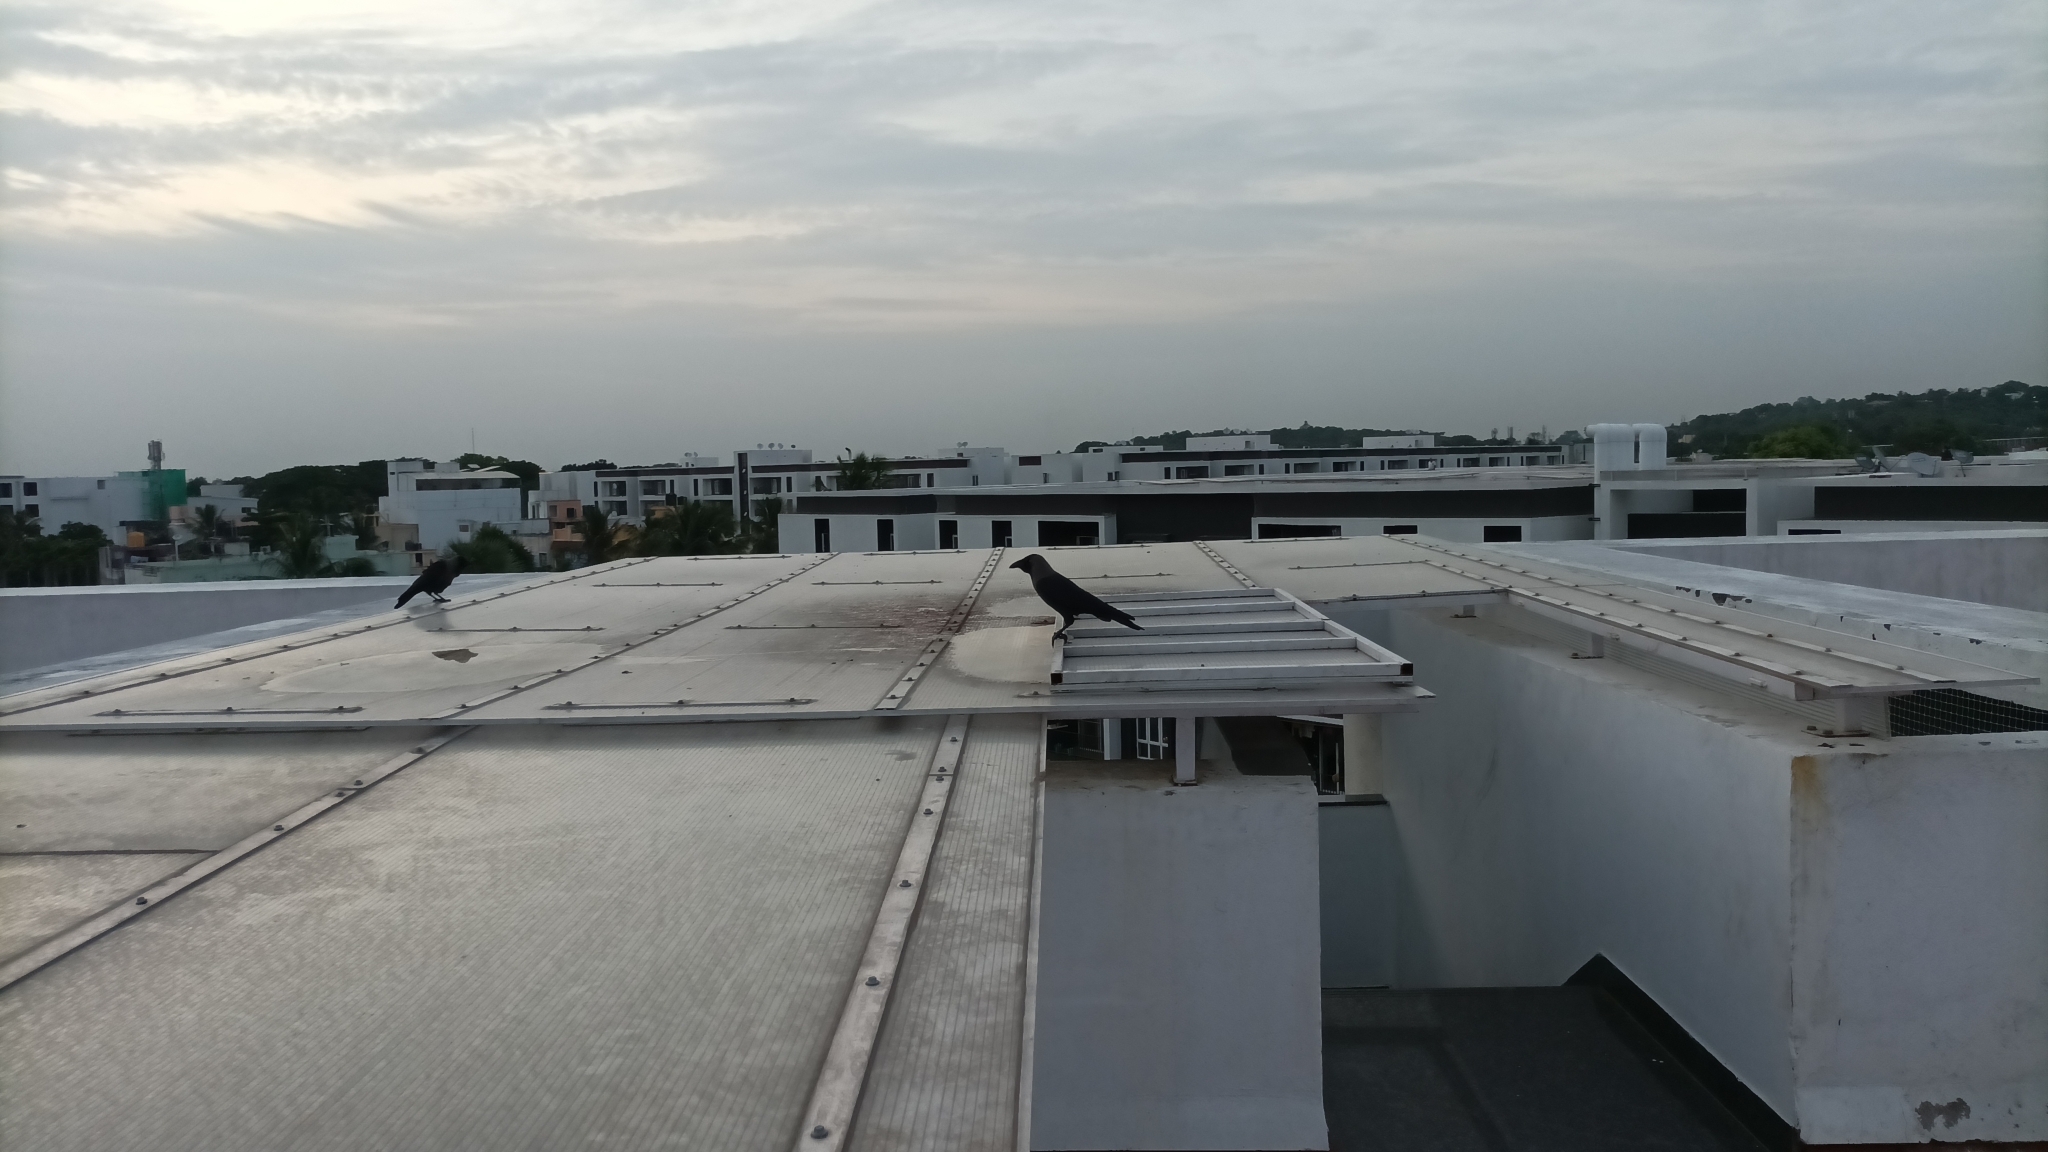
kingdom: Animalia
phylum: Chordata
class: Aves
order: Passeriformes
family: Corvidae
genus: Corvus
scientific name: Corvus splendens
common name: House crow
